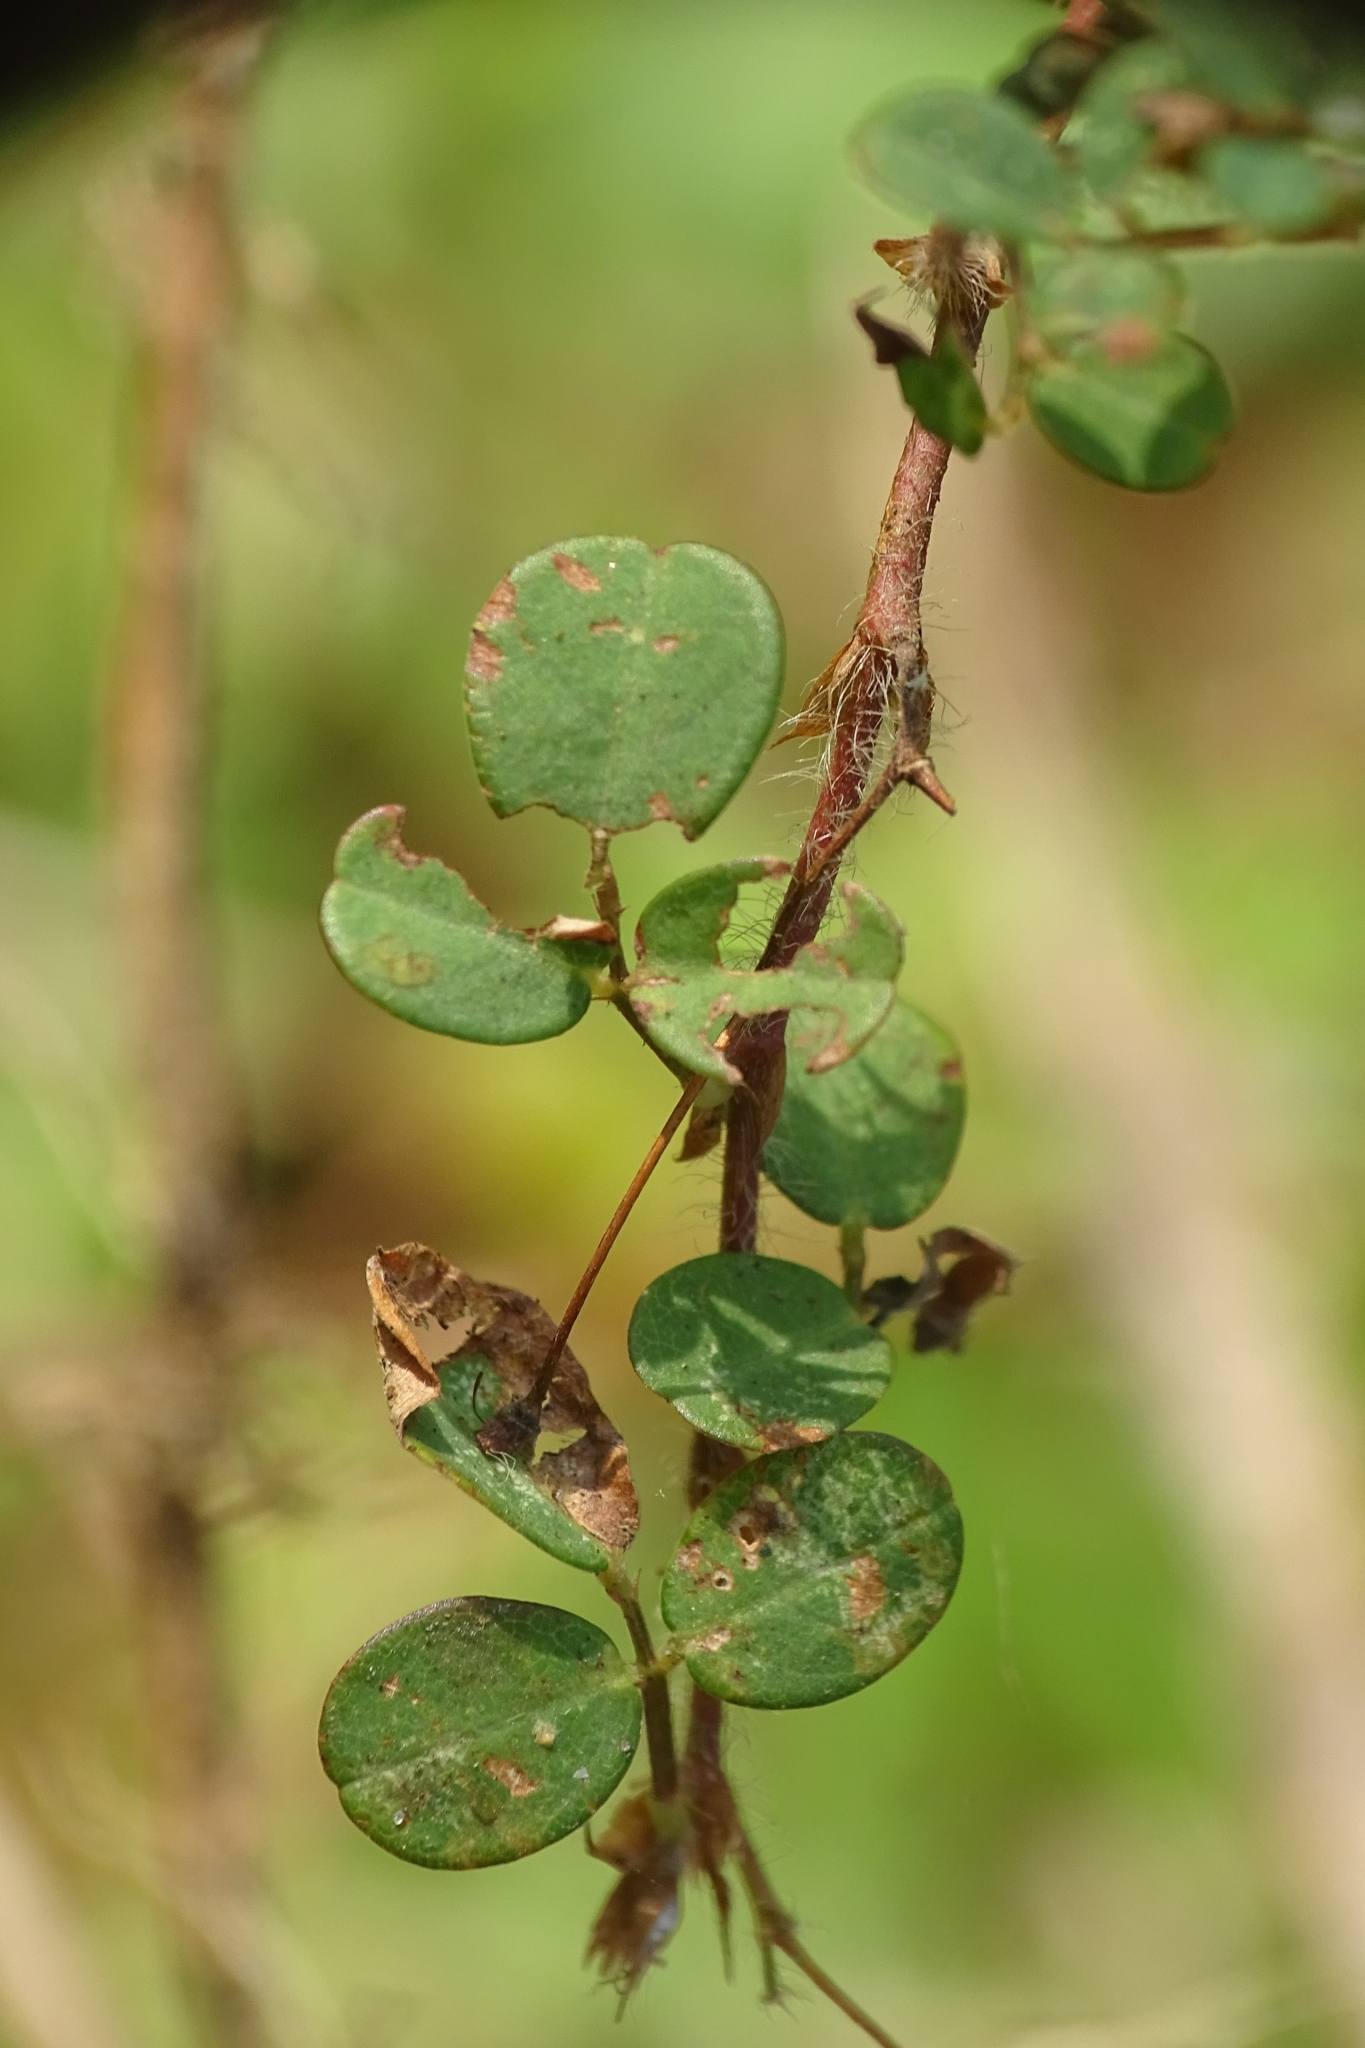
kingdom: Plantae
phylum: Tracheophyta
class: Magnoliopsida
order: Fabales
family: Fabaceae
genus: Grona
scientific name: Grona triflora
